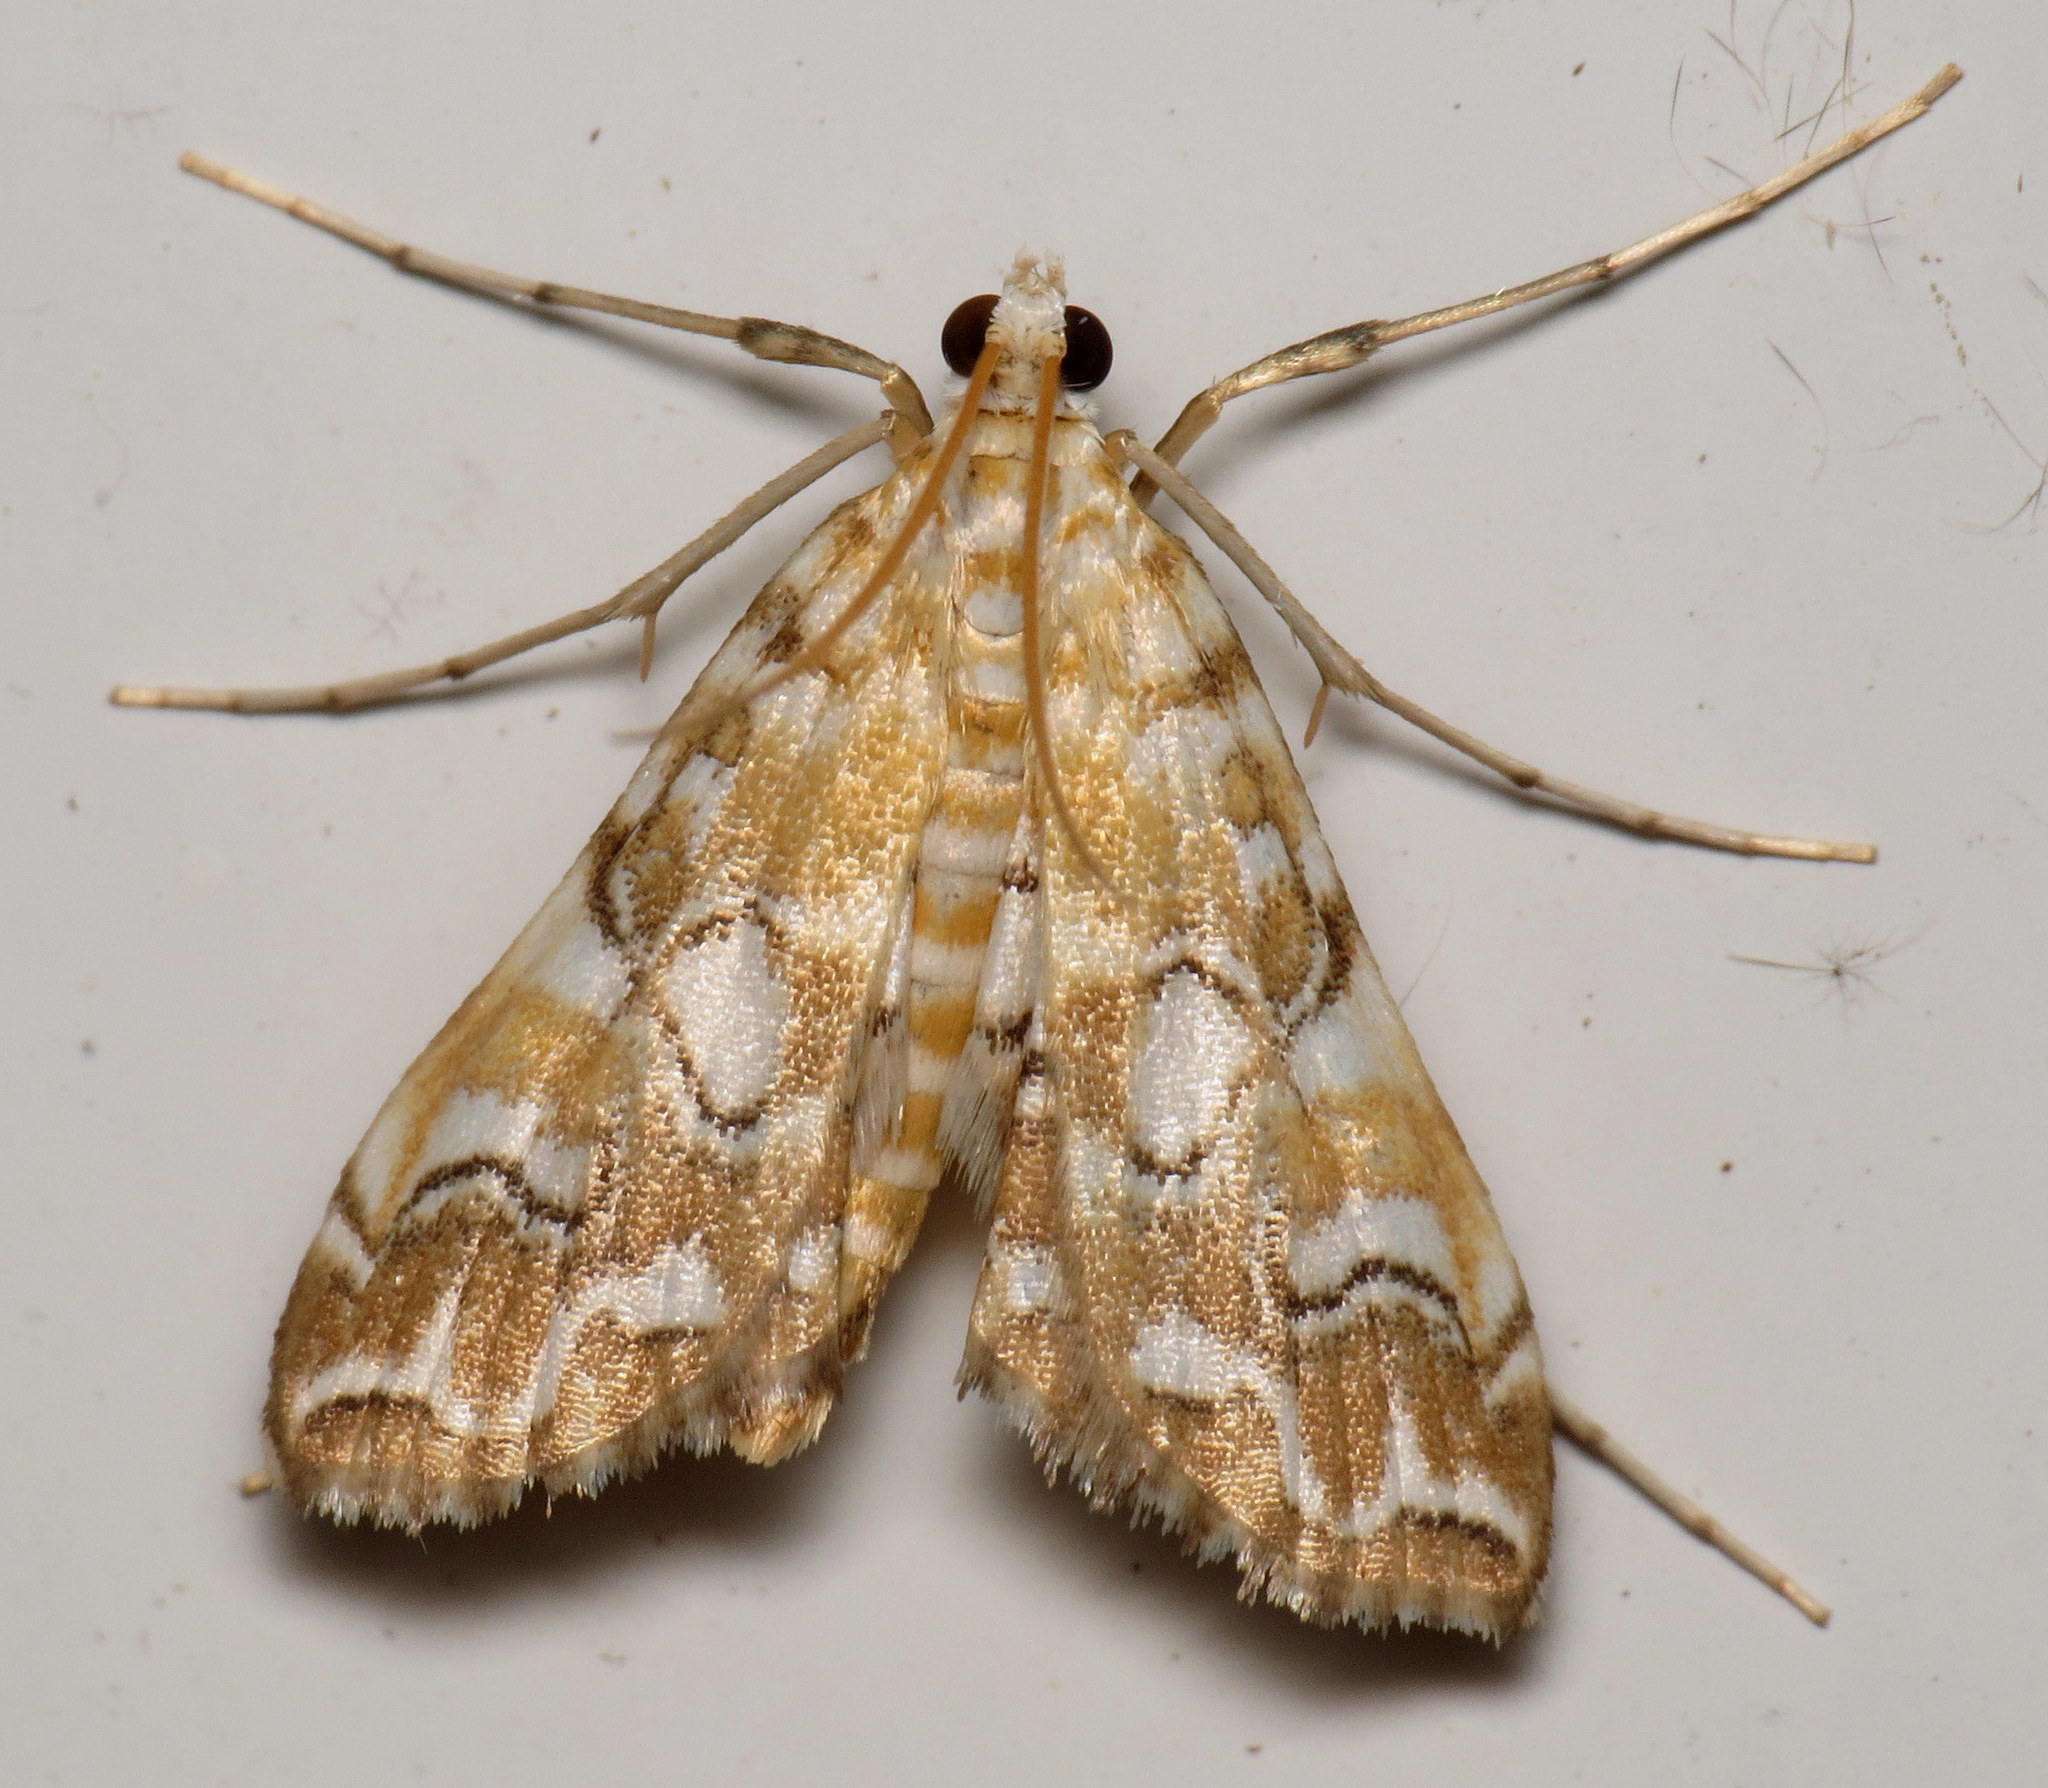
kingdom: Animalia
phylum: Arthropoda
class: Insecta
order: Lepidoptera
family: Crambidae
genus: Elophila
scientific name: Elophila icciusalis
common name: Pondside pyralid moth
